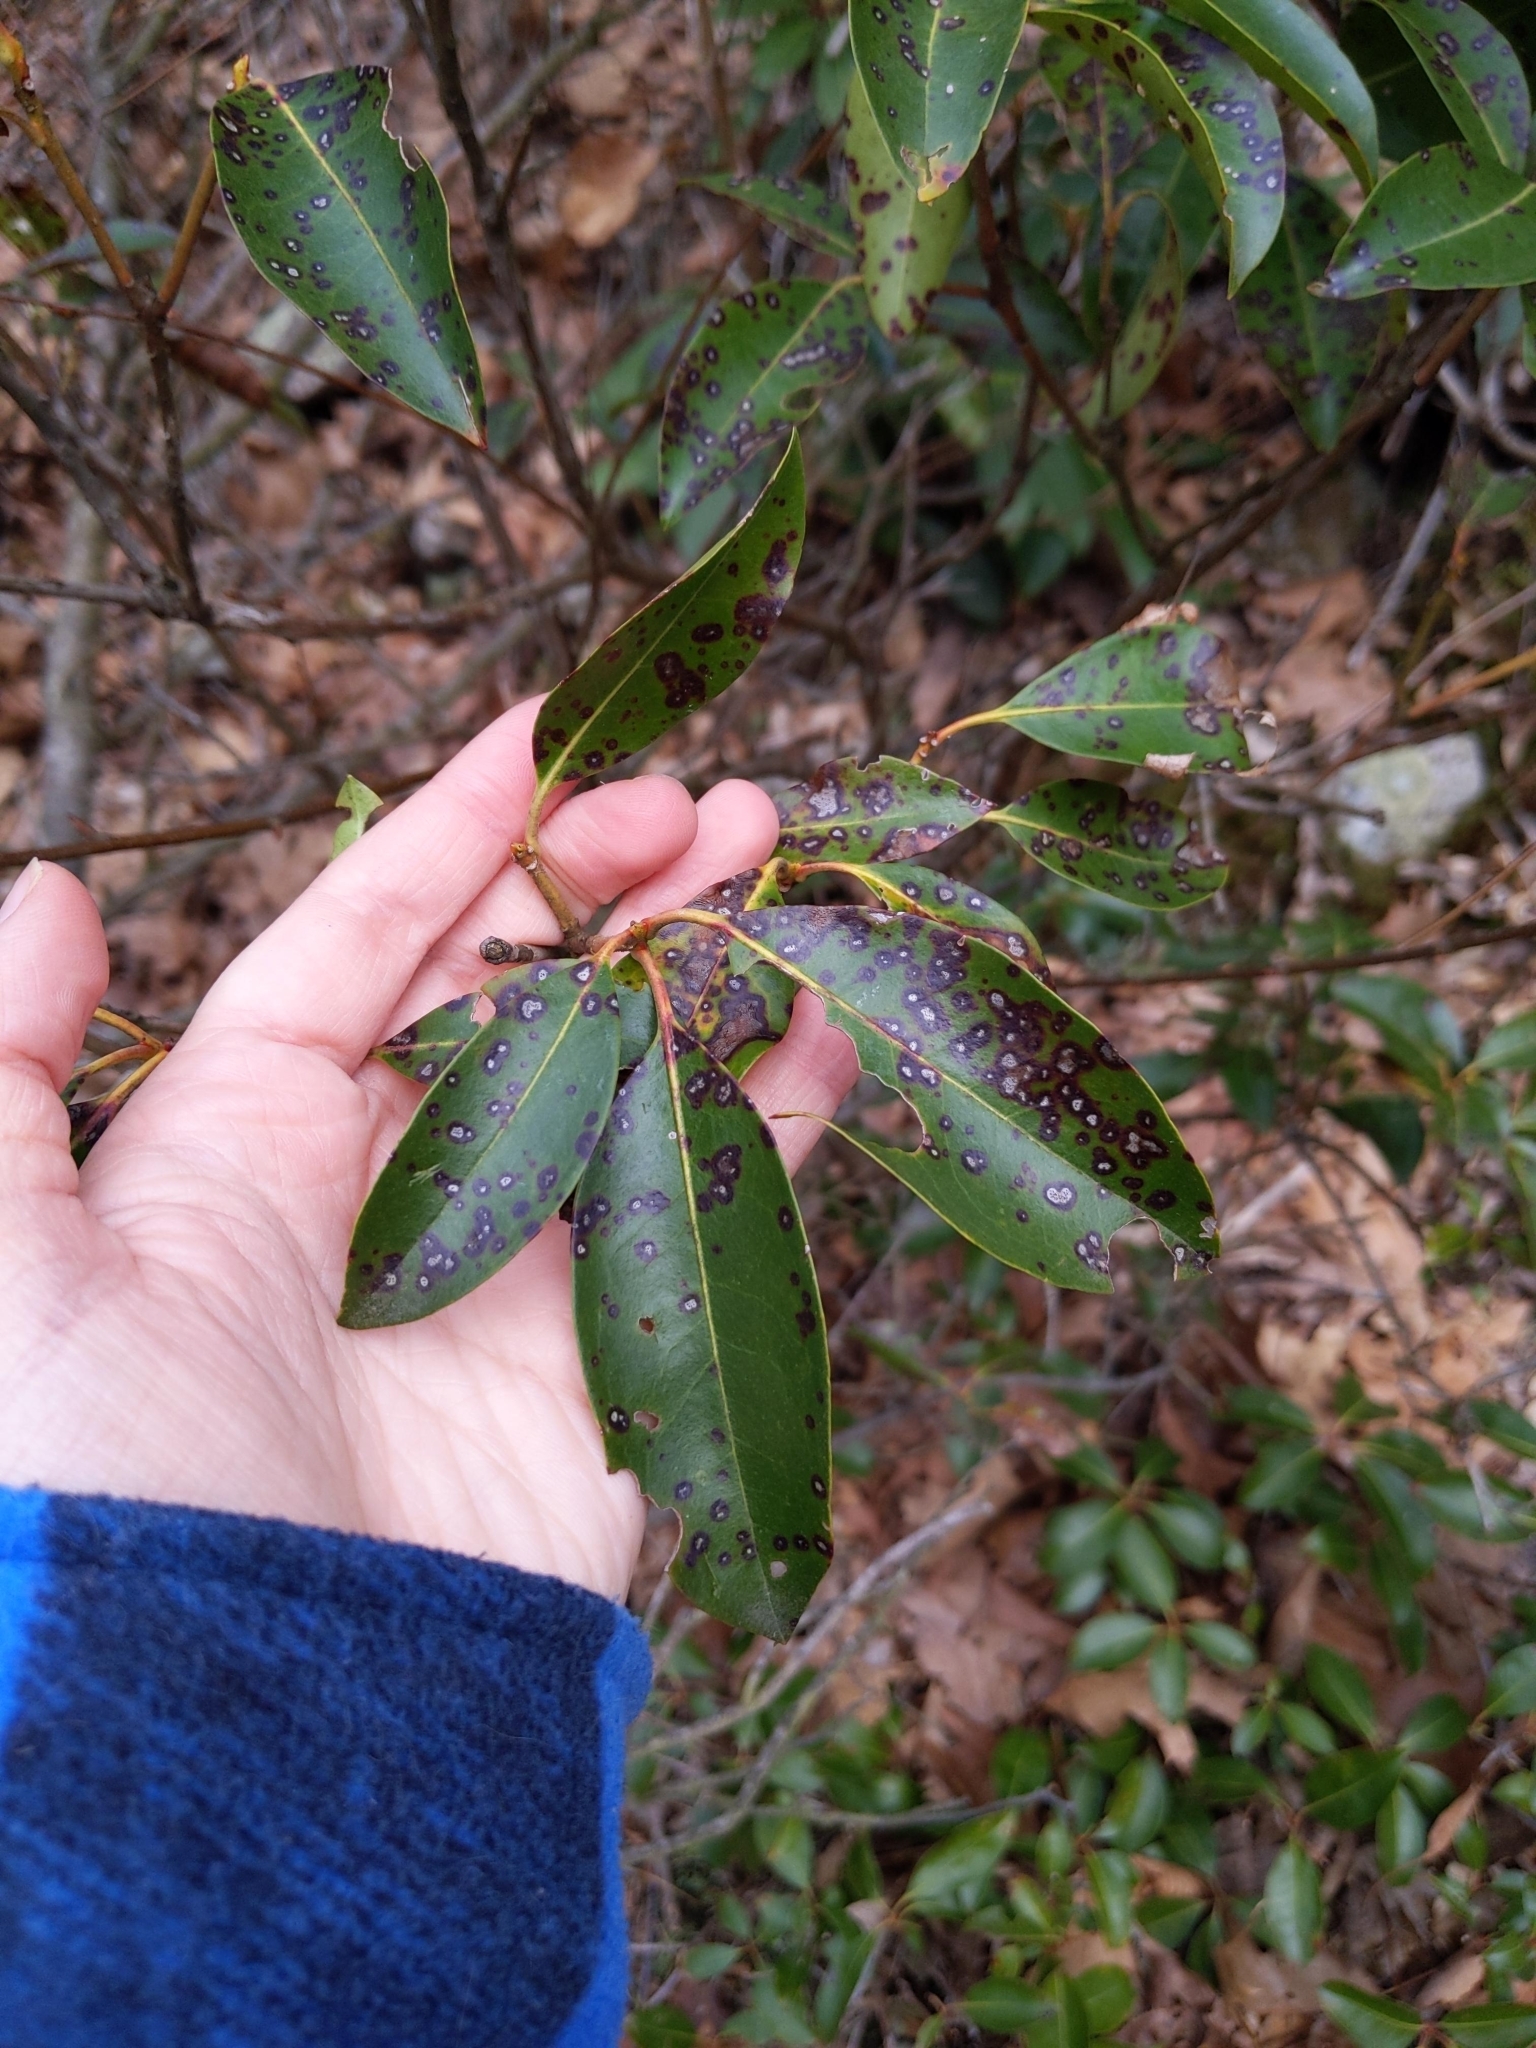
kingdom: Fungi
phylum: Ascomycota
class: Dothideomycetes
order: Mycosphaerellales
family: Mycosphaerellaceae
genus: Mycosphaerella
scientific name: Mycosphaerella colorata
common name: Mountain laurel leaf spot
